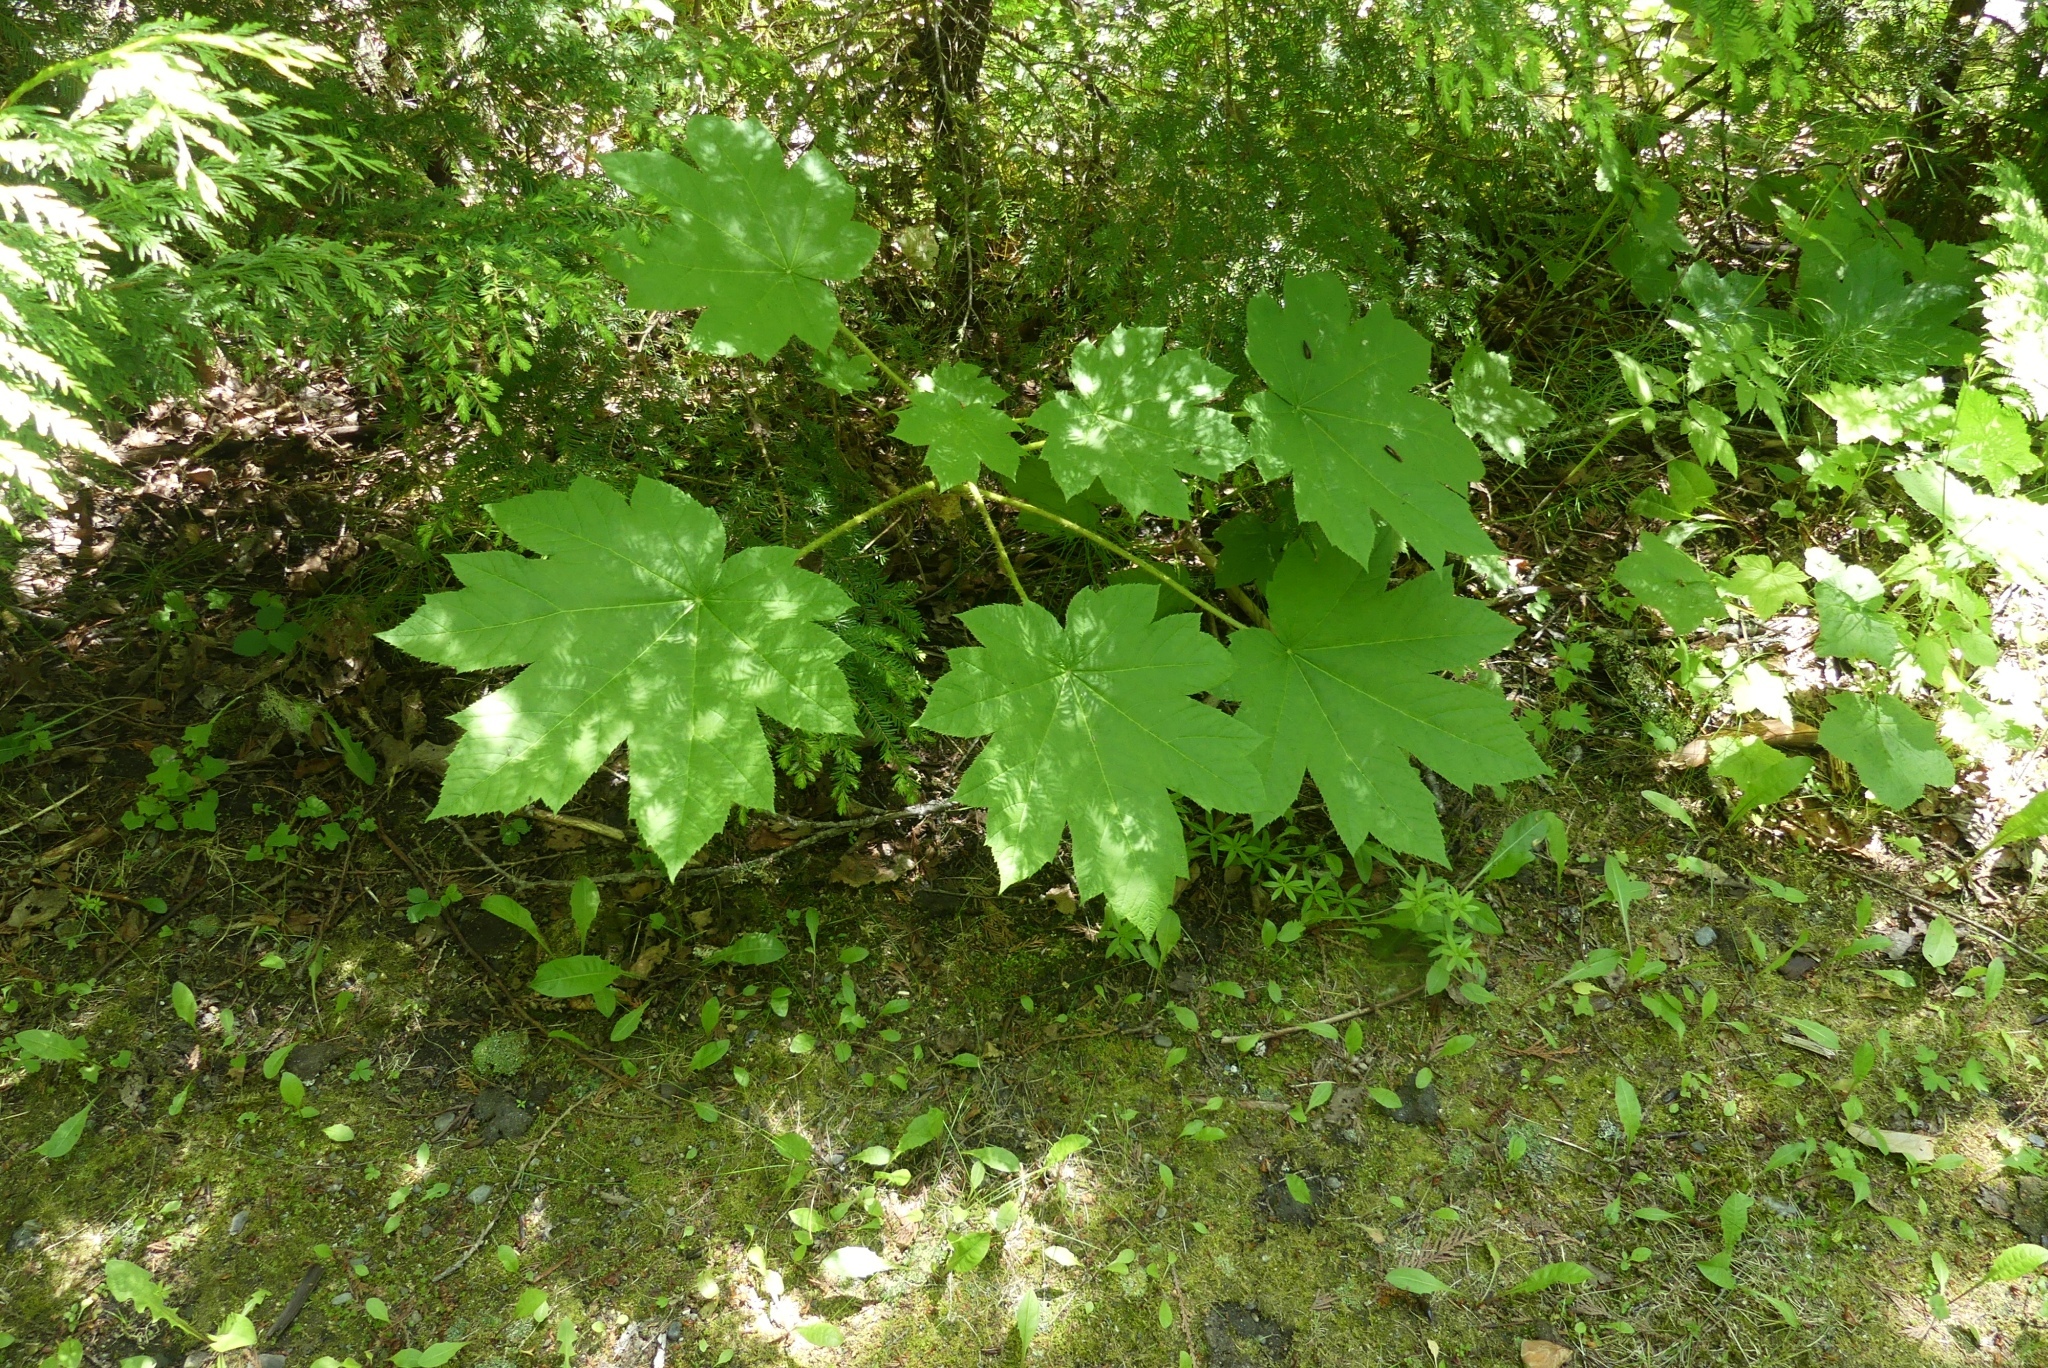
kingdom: Plantae
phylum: Tracheophyta
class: Magnoliopsida
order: Apiales
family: Araliaceae
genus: Oplopanax
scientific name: Oplopanax horridus
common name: Devil's walking-stick
